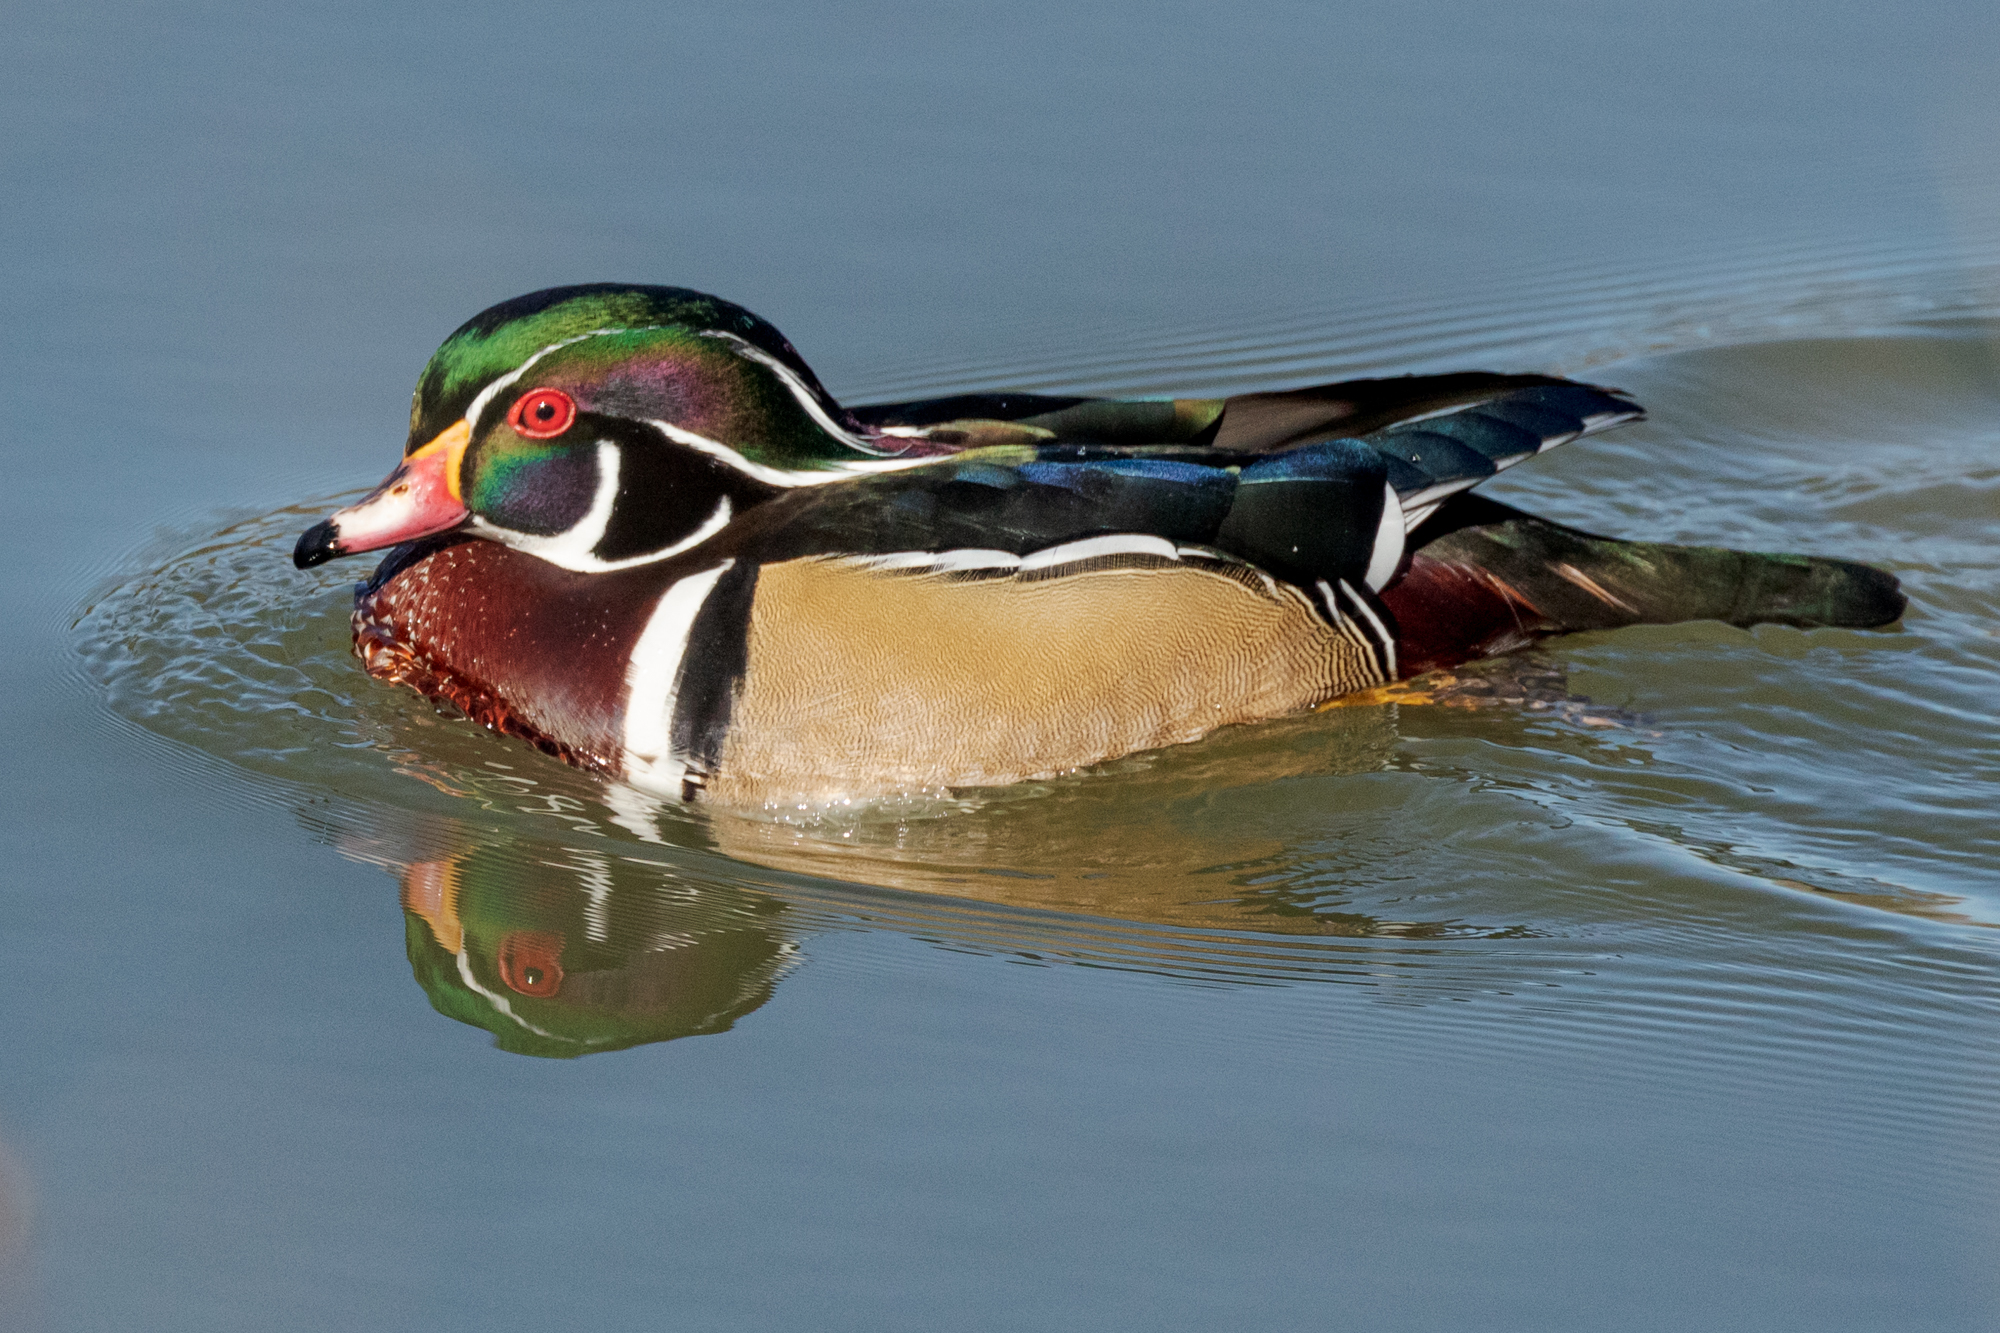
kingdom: Animalia
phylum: Chordata
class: Aves
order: Anseriformes
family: Anatidae
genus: Aix
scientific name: Aix sponsa
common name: Wood duck
